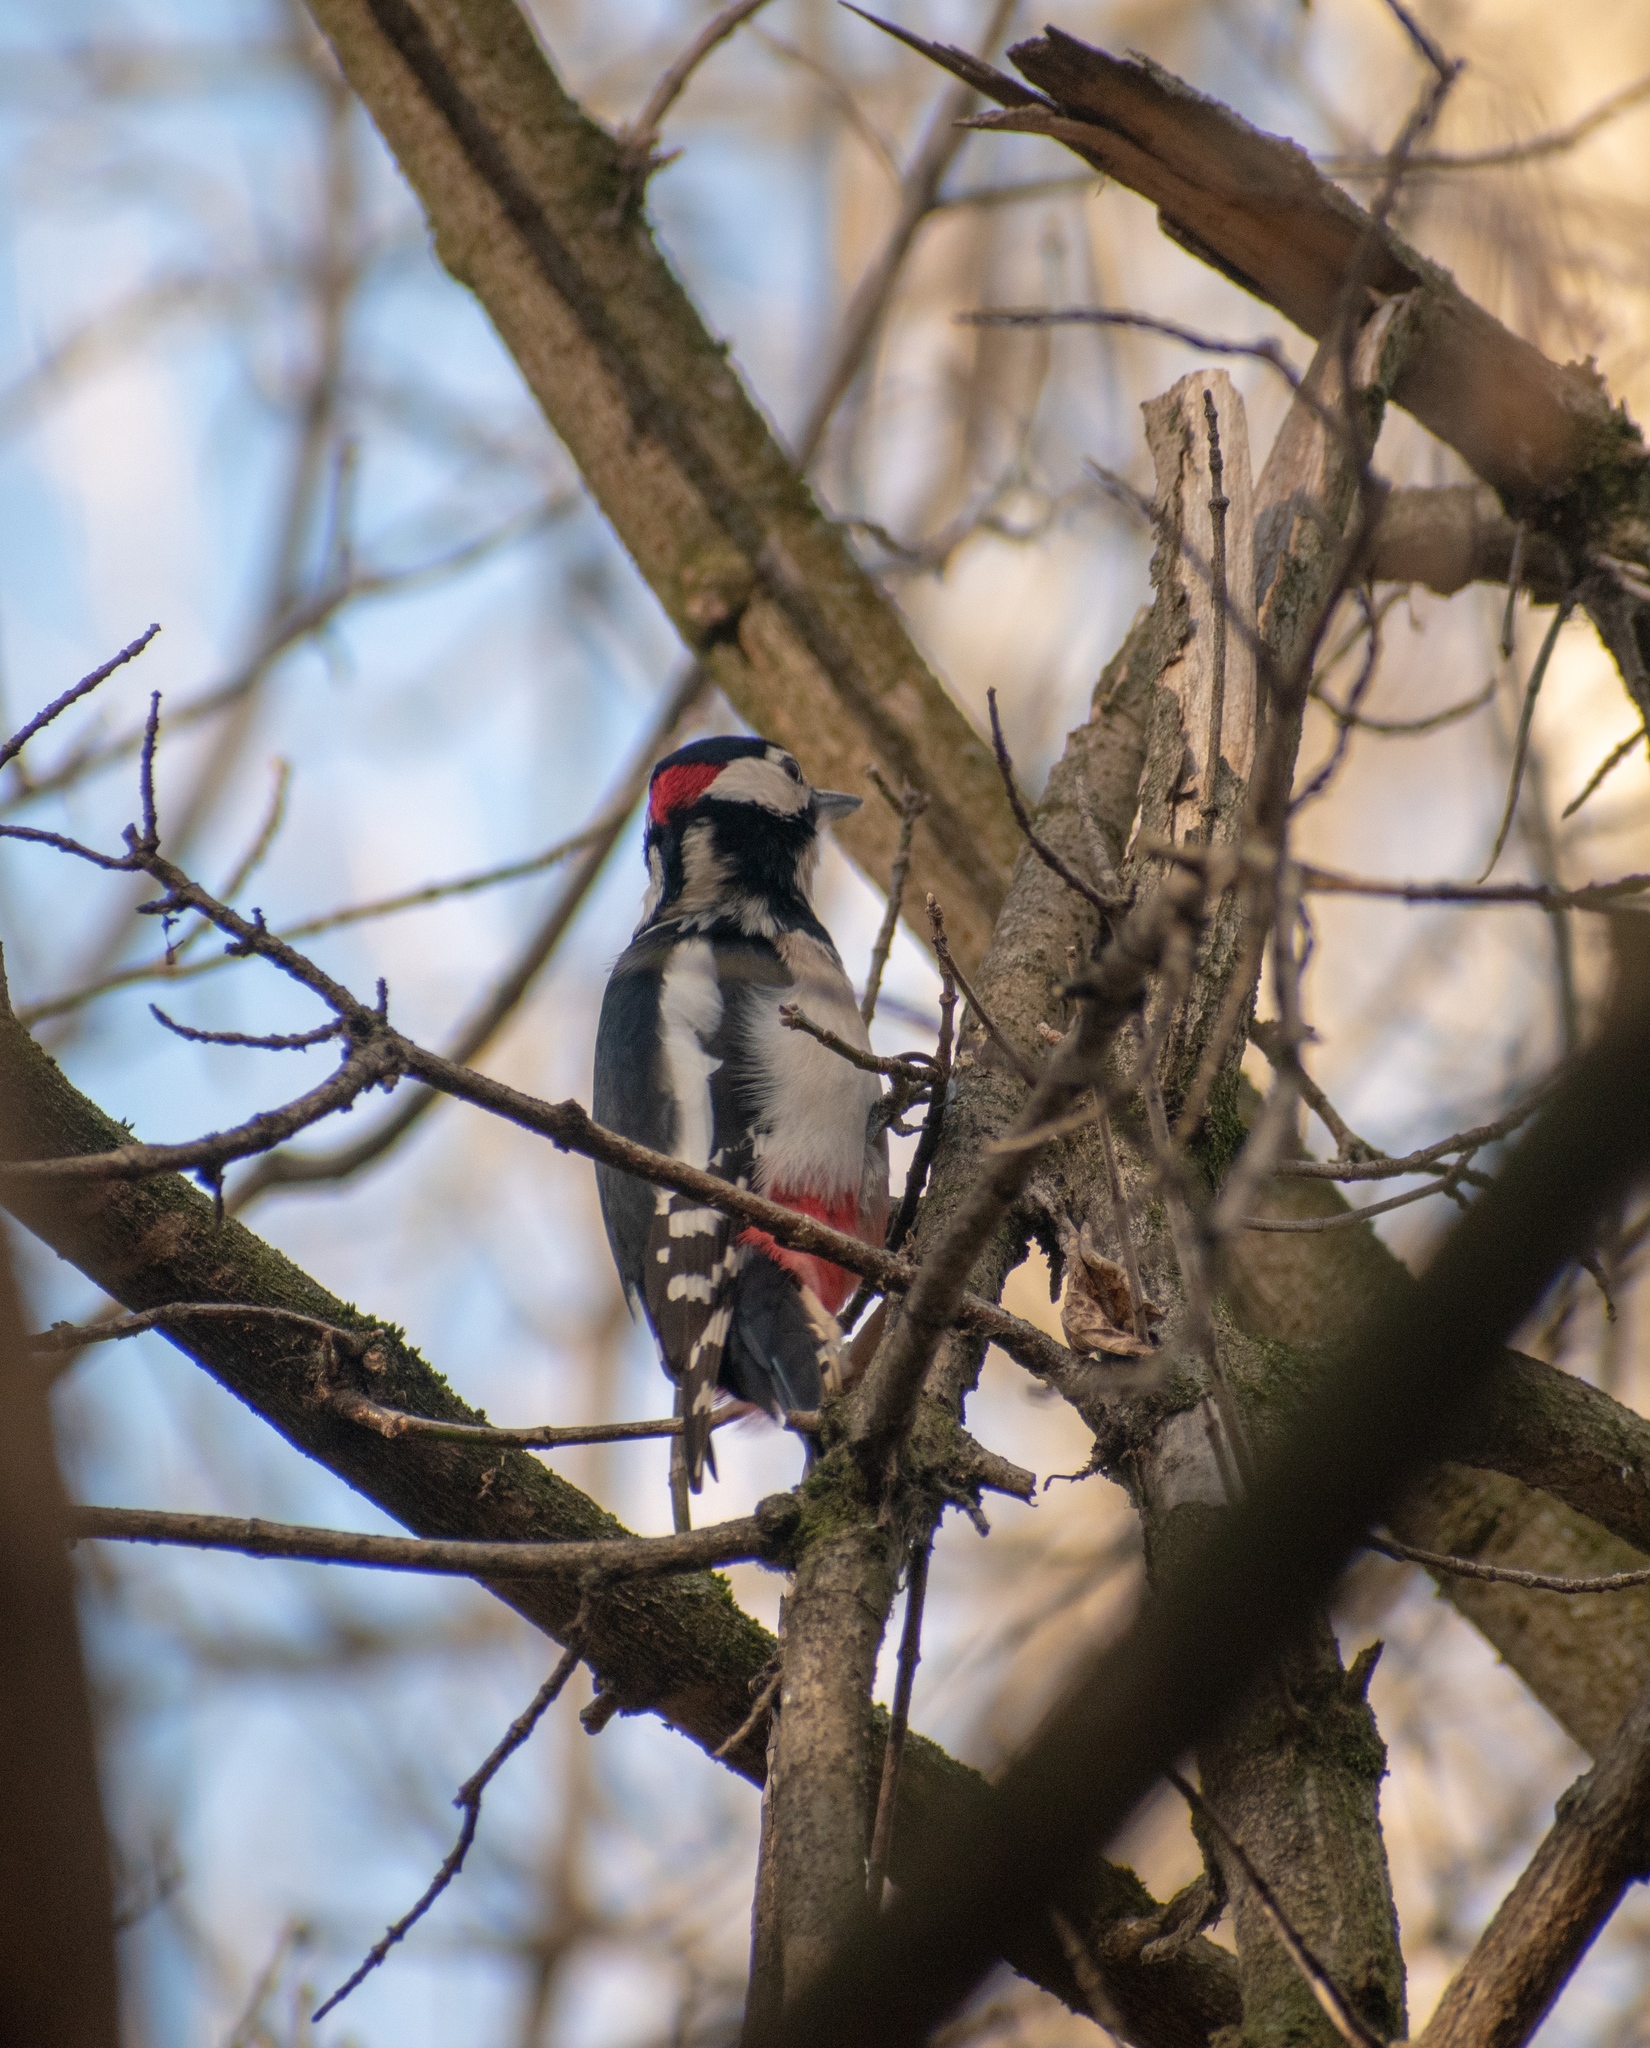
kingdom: Animalia
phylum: Chordata
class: Aves
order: Piciformes
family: Picidae
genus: Dendrocopos
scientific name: Dendrocopos major
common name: Great spotted woodpecker
